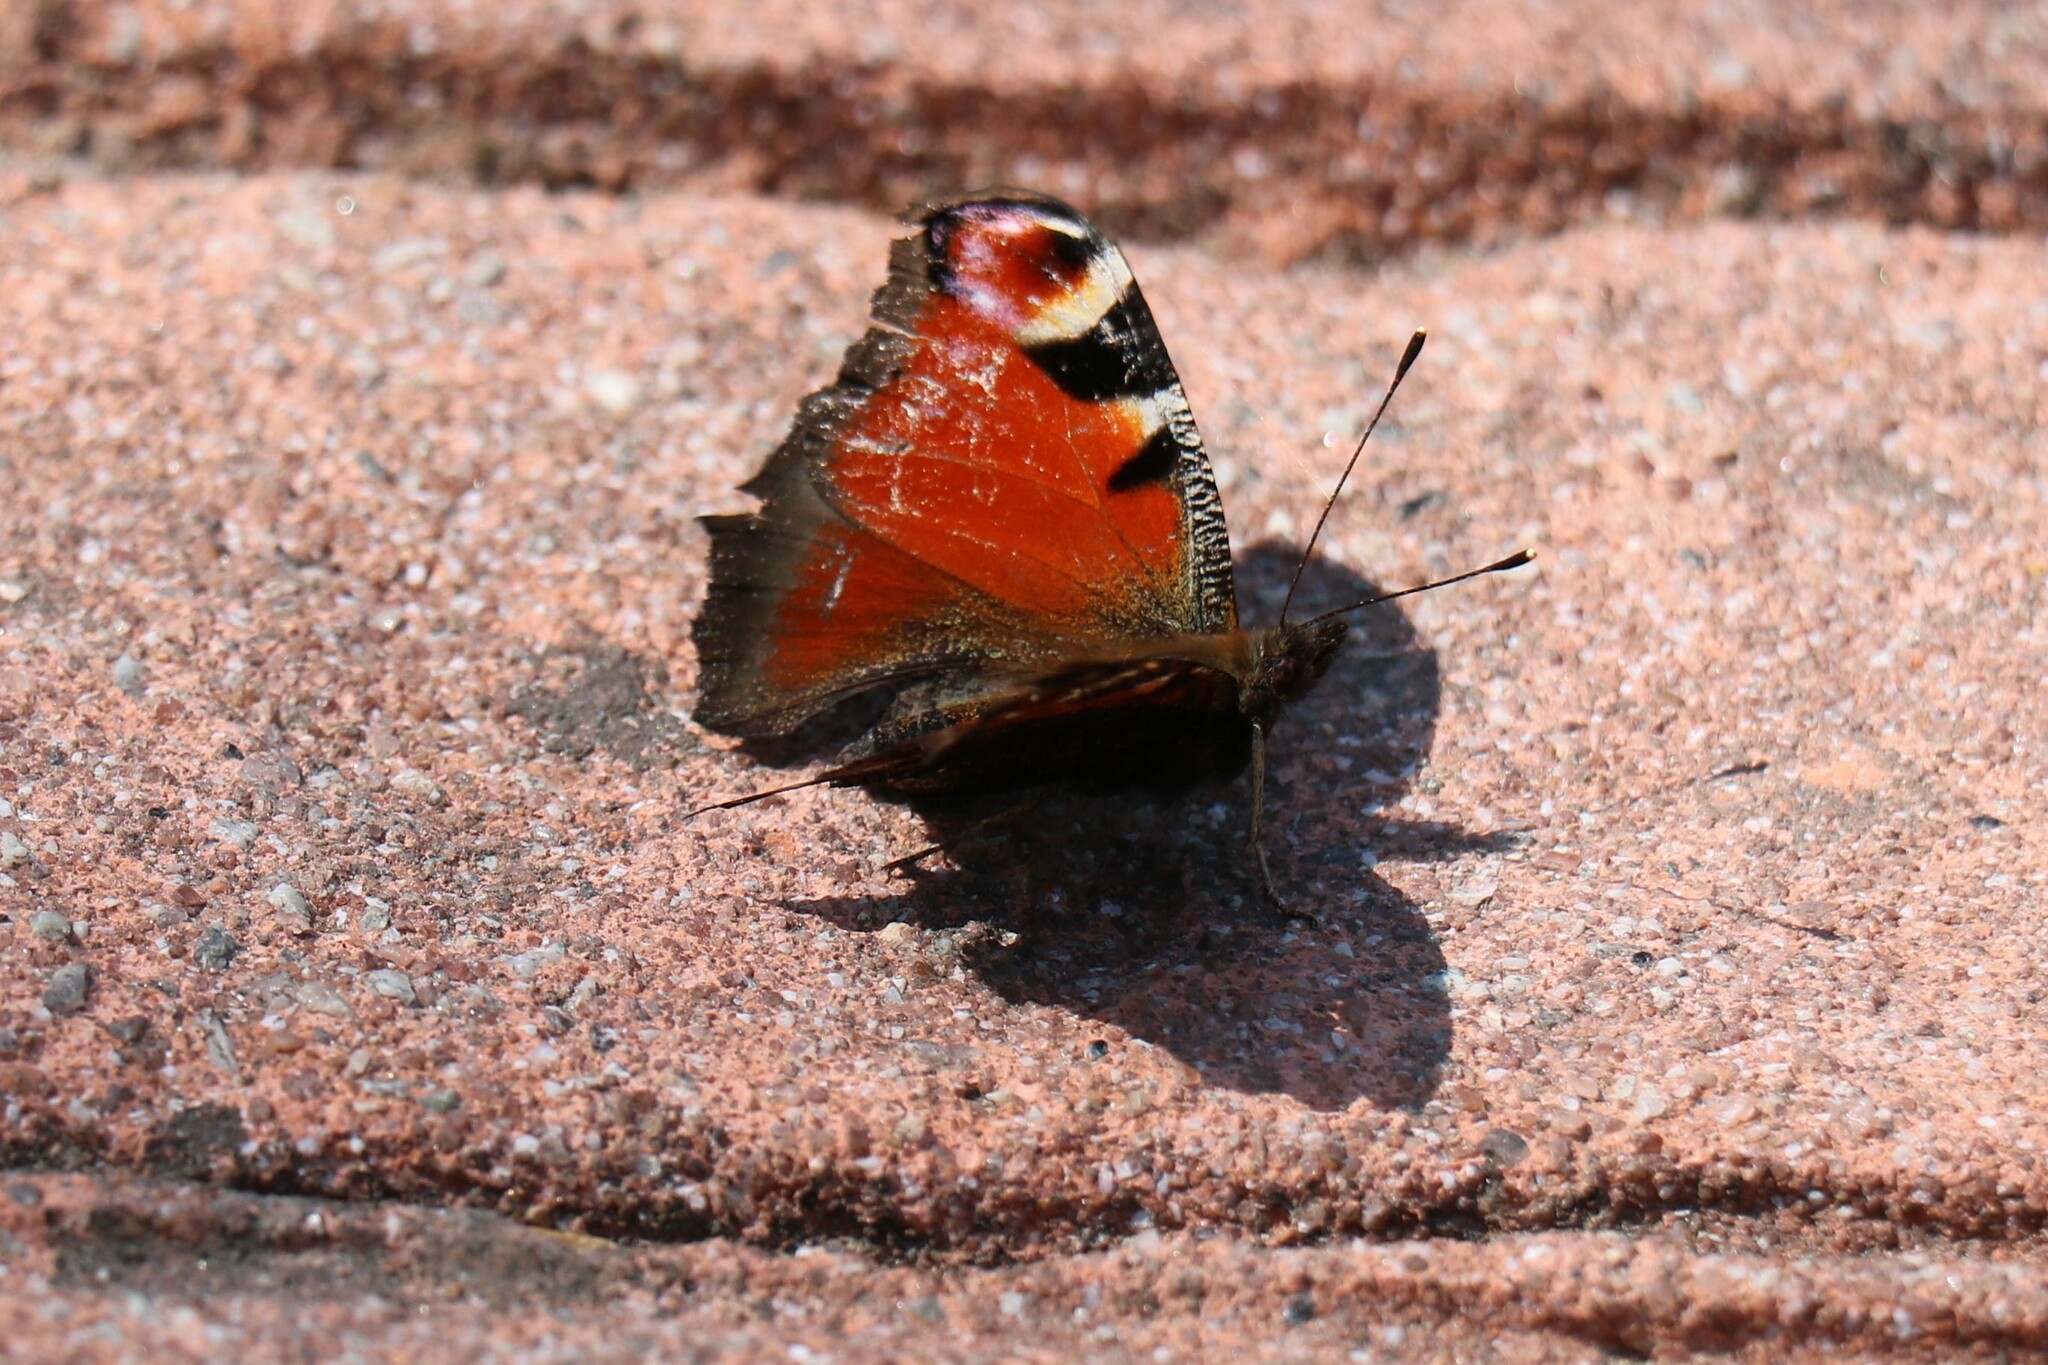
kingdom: Animalia
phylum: Arthropoda
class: Insecta
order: Lepidoptera
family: Nymphalidae
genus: Aglais
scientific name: Aglais io
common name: Peacock
